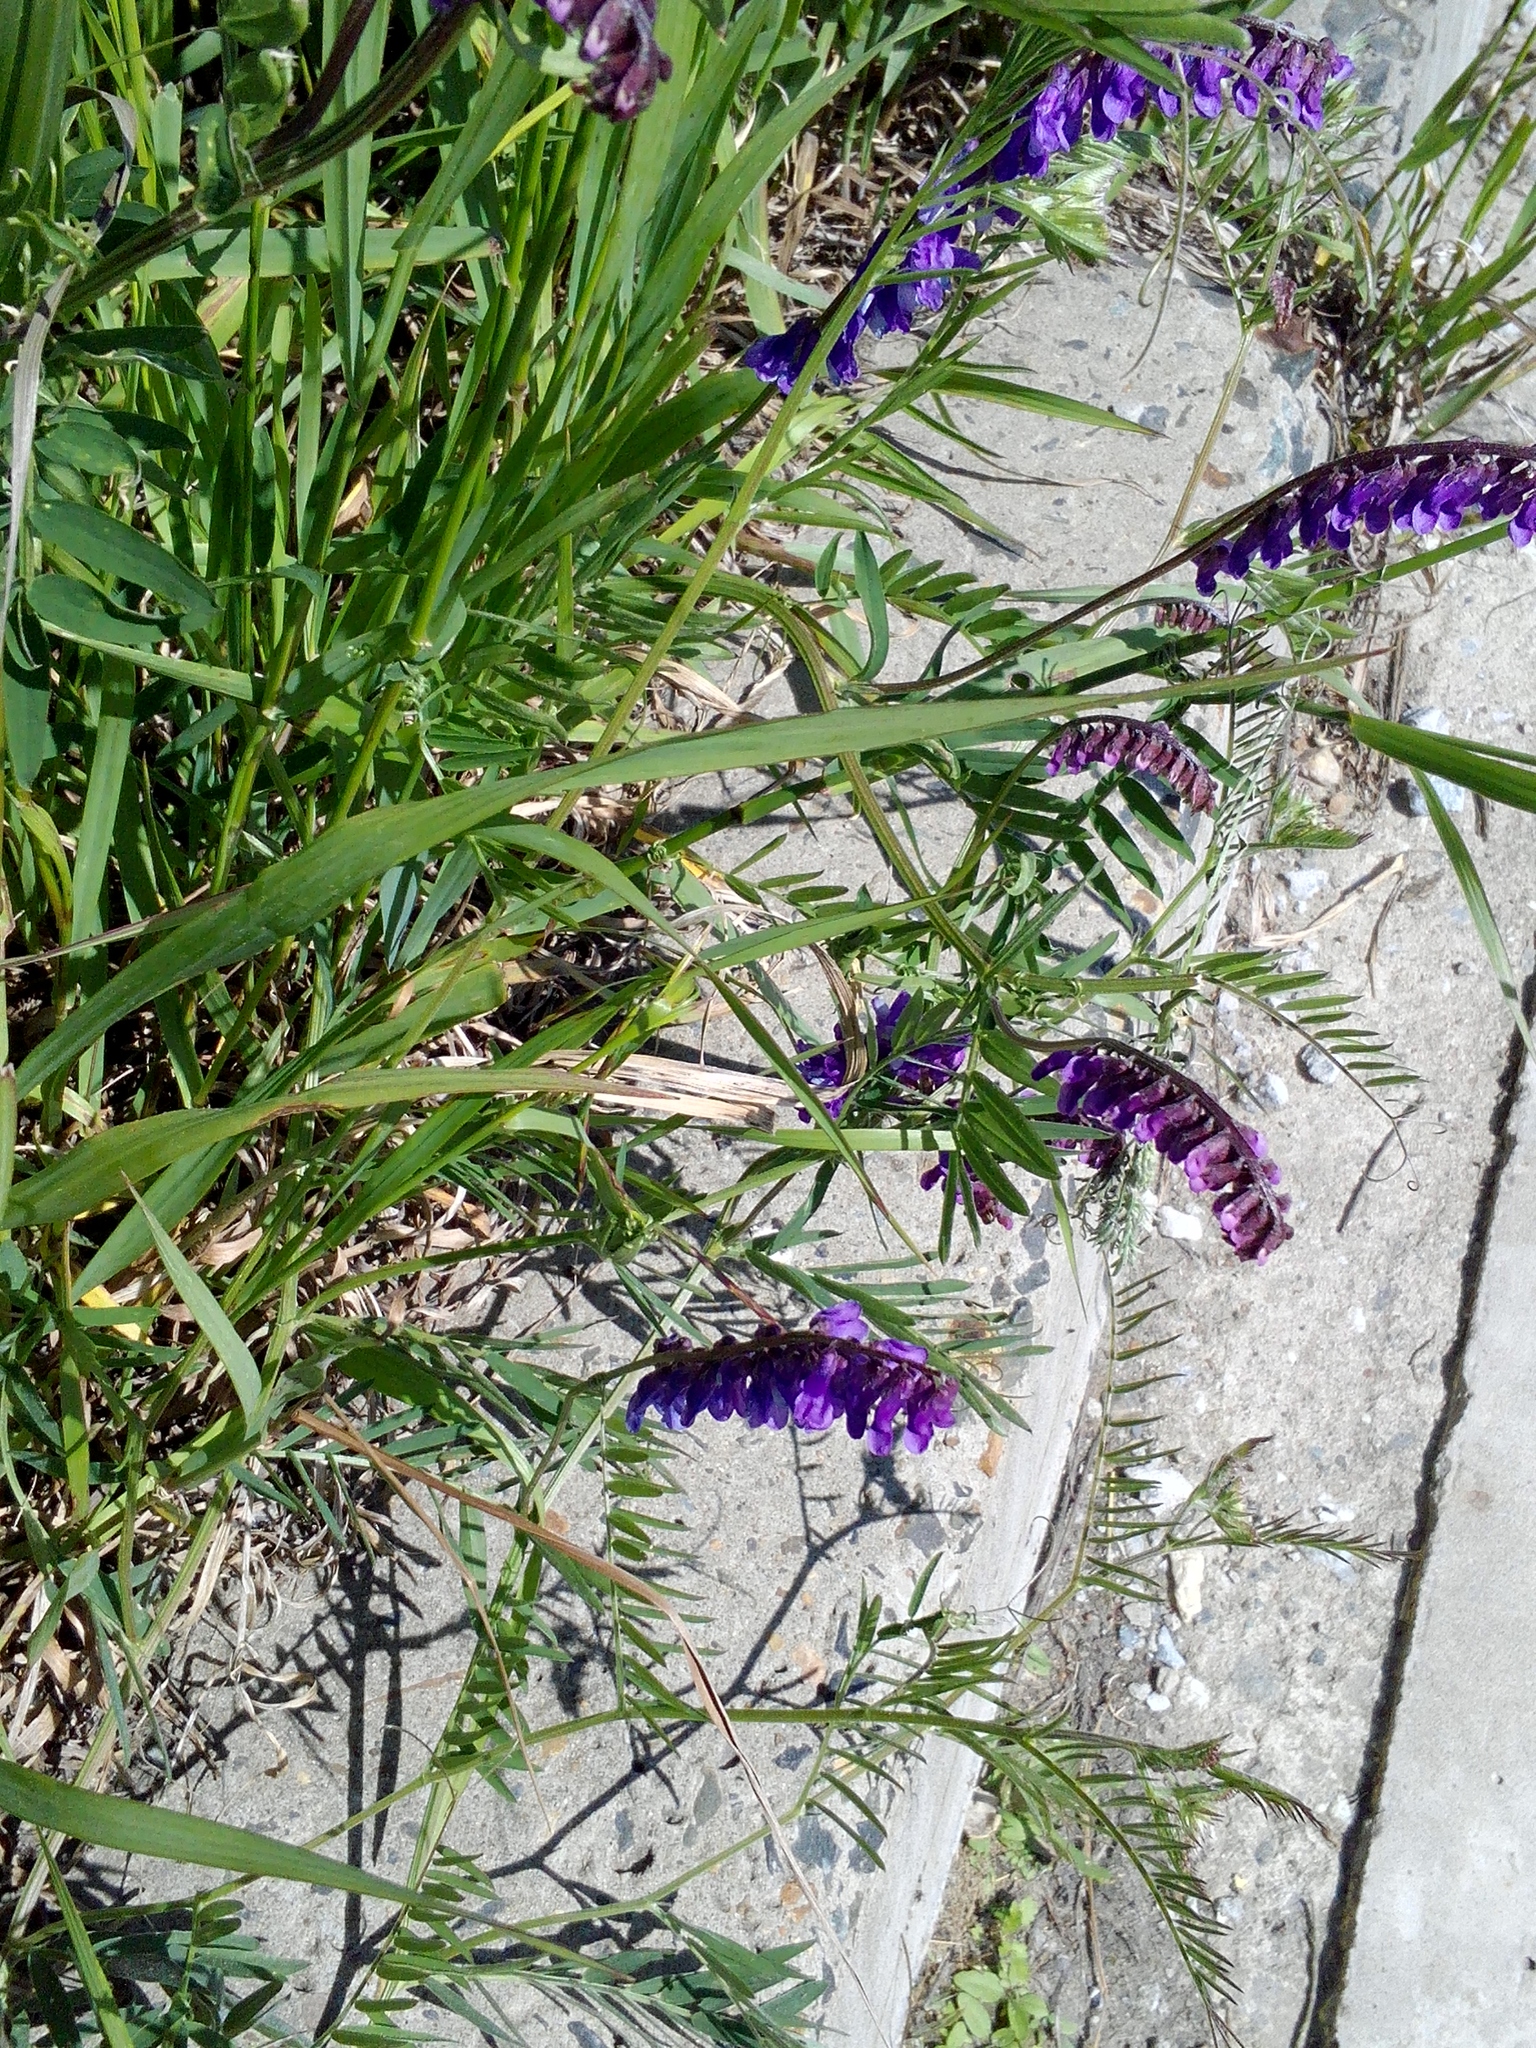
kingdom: Plantae
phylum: Tracheophyta
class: Magnoliopsida
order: Fabales
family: Fabaceae
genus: Vicia
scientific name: Vicia cracca
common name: Bird vetch
